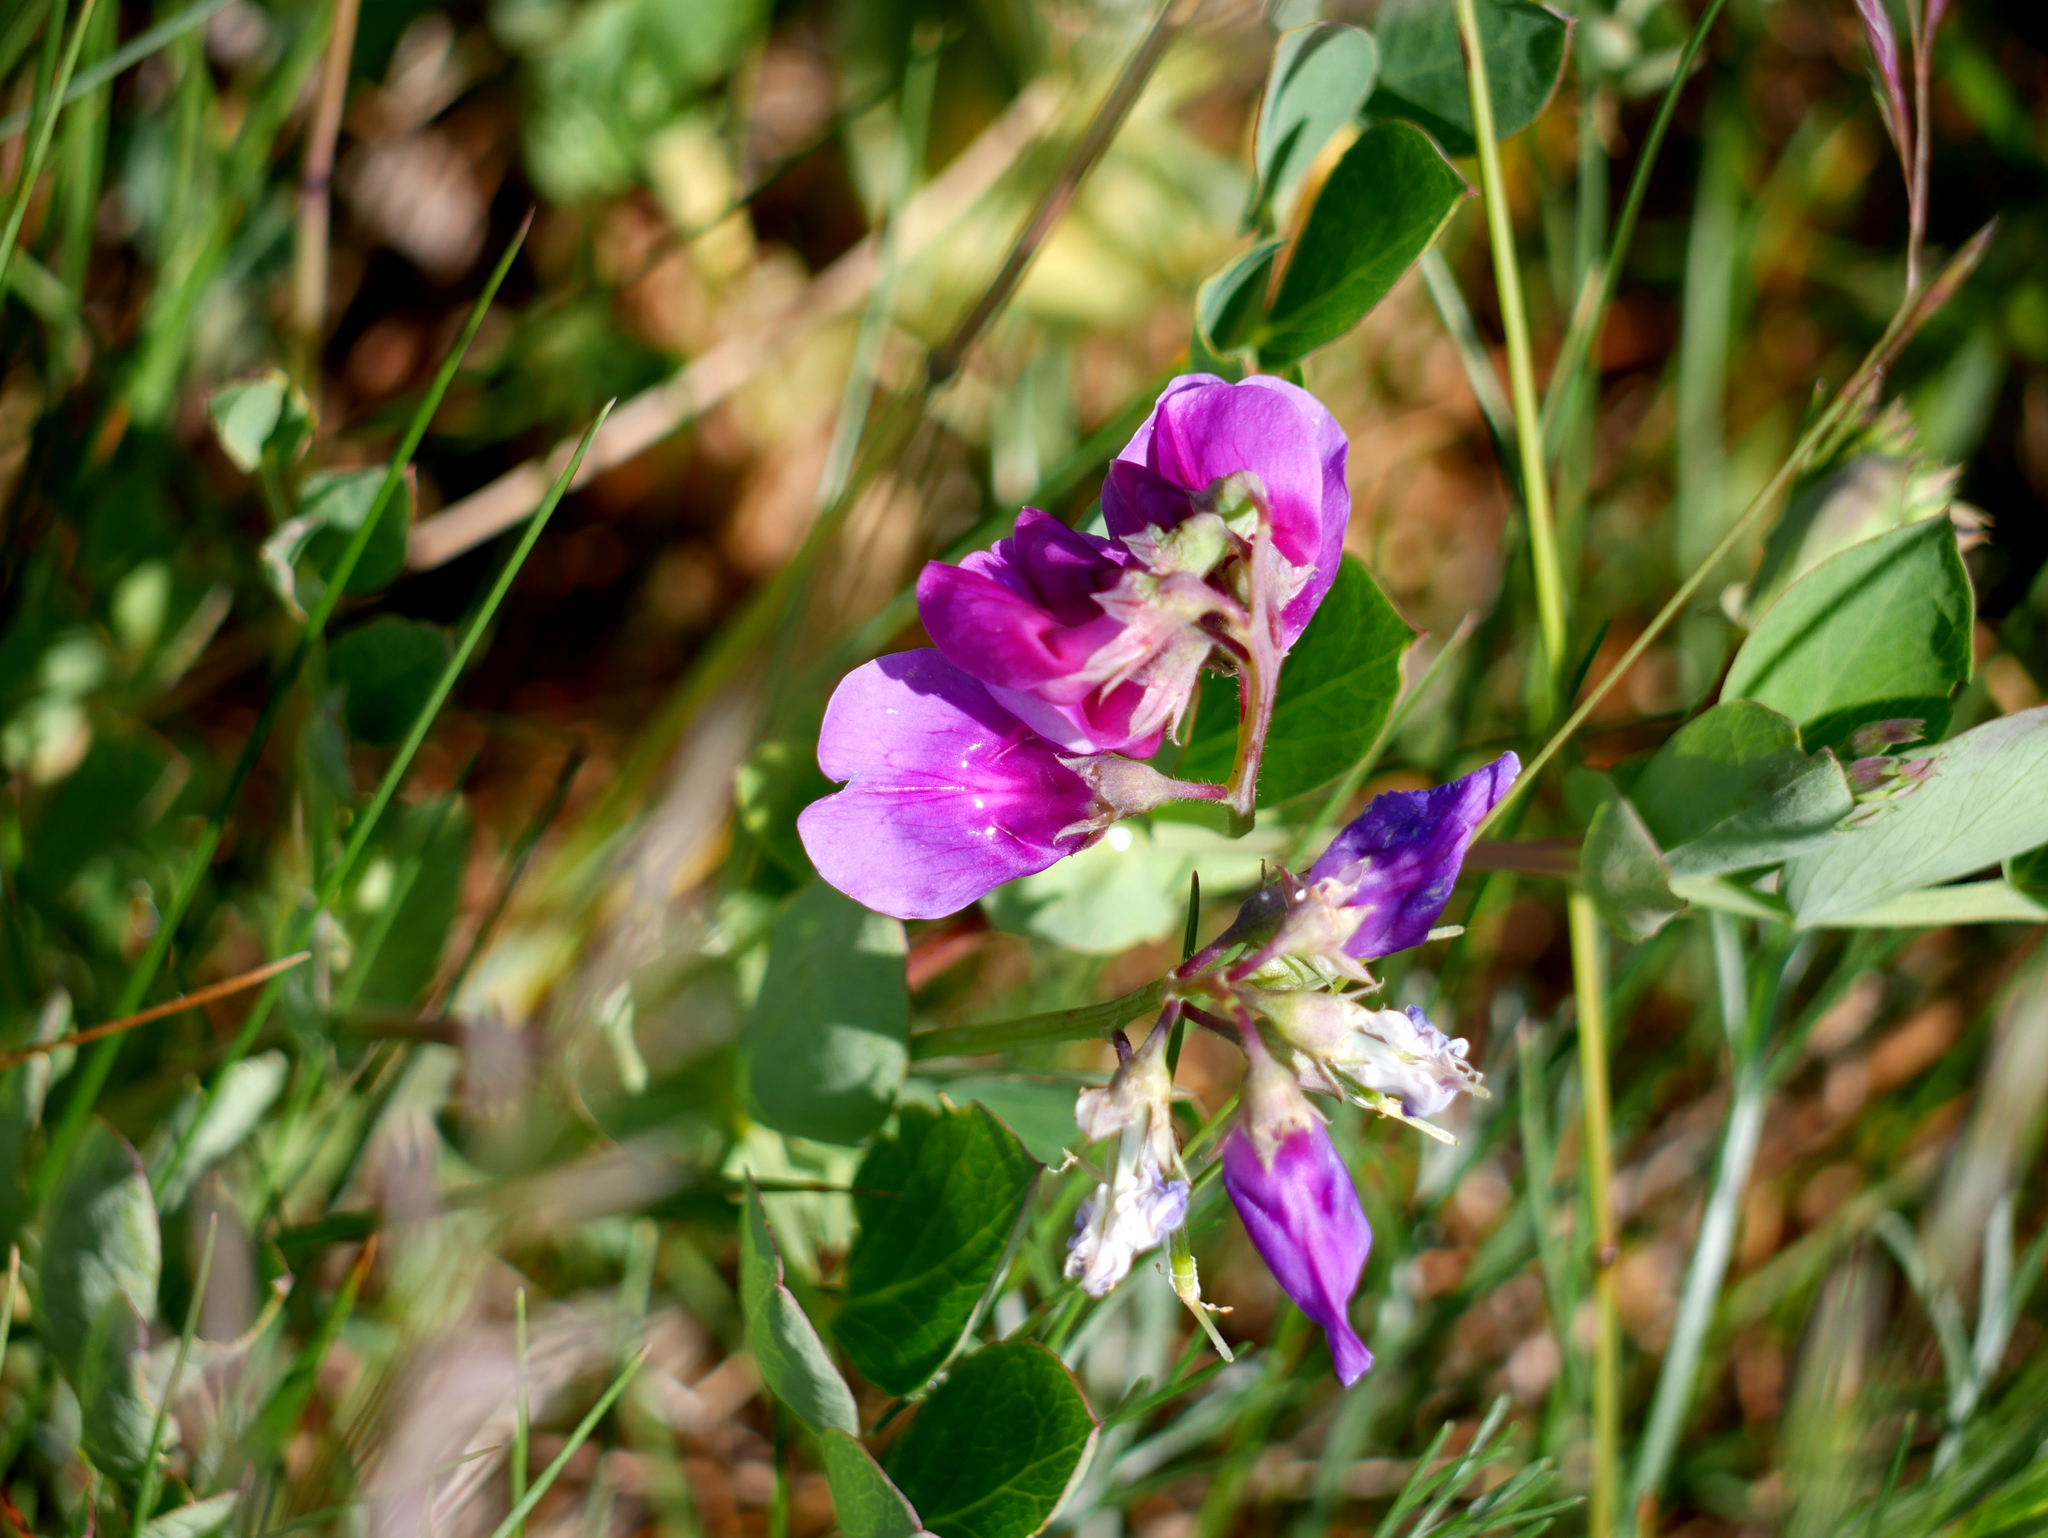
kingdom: Plantae
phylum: Tracheophyta
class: Magnoliopsida
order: Fabales
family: Fabaceae
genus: Lathyrus
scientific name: Lathyrus japonicus
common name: Sea pea
